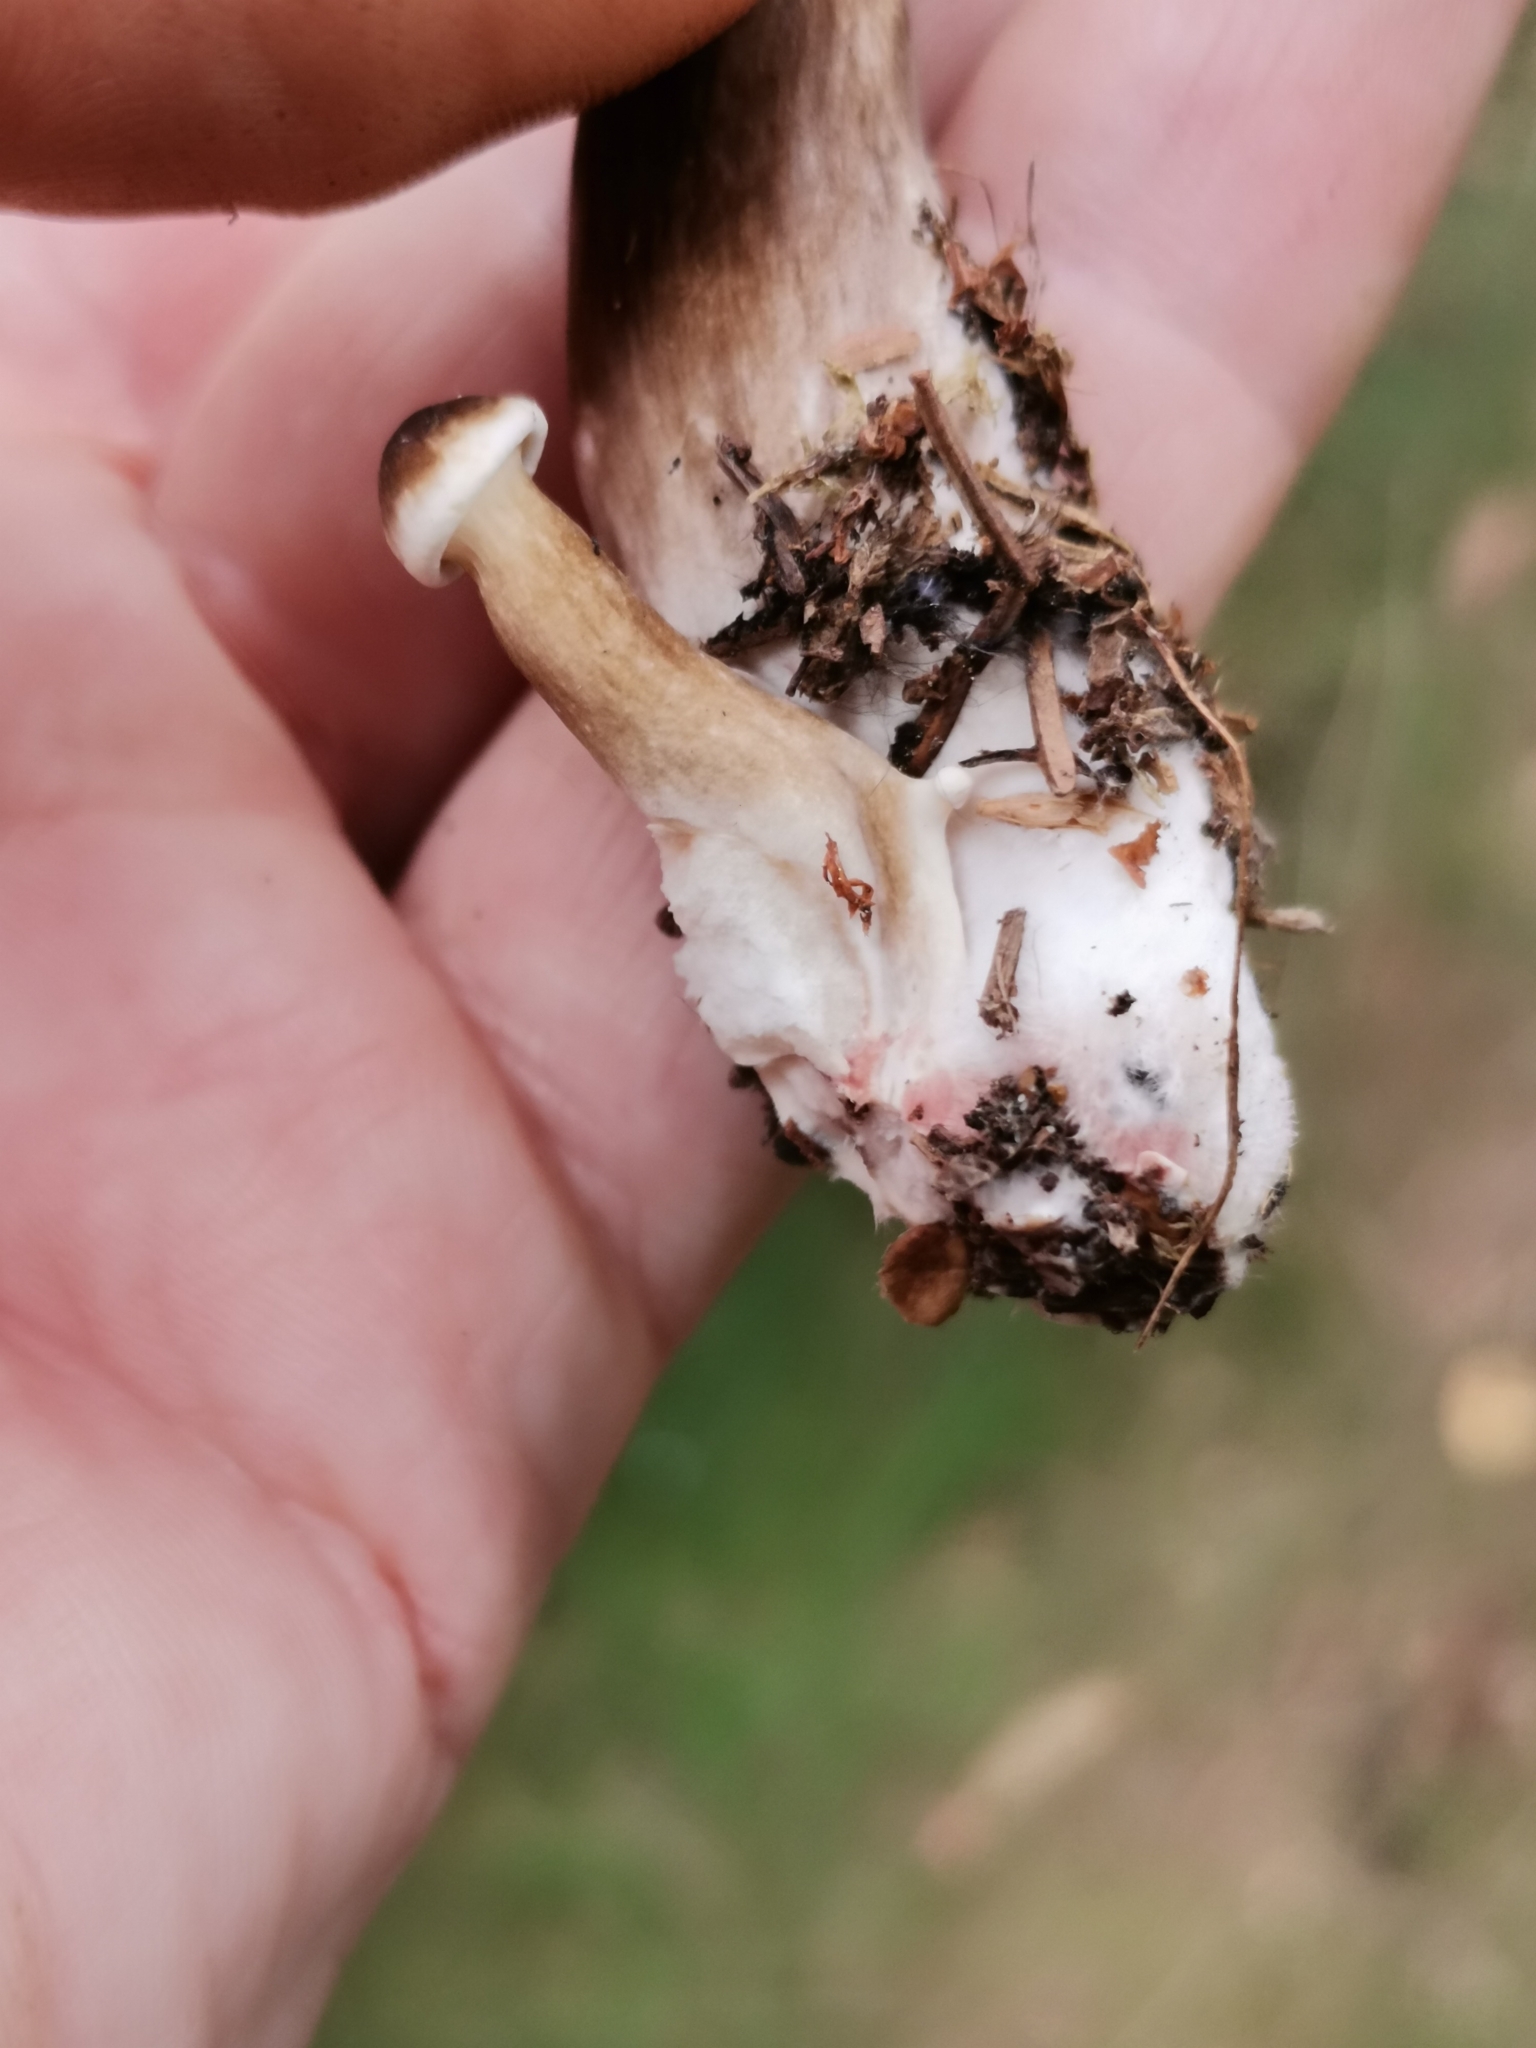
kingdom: Fungi
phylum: Basidiomycota
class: Agaricomycetes
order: Russulales
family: Russulaceae
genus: Lactarius
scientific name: Lactarius lignyotus
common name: Velvet milkcap
